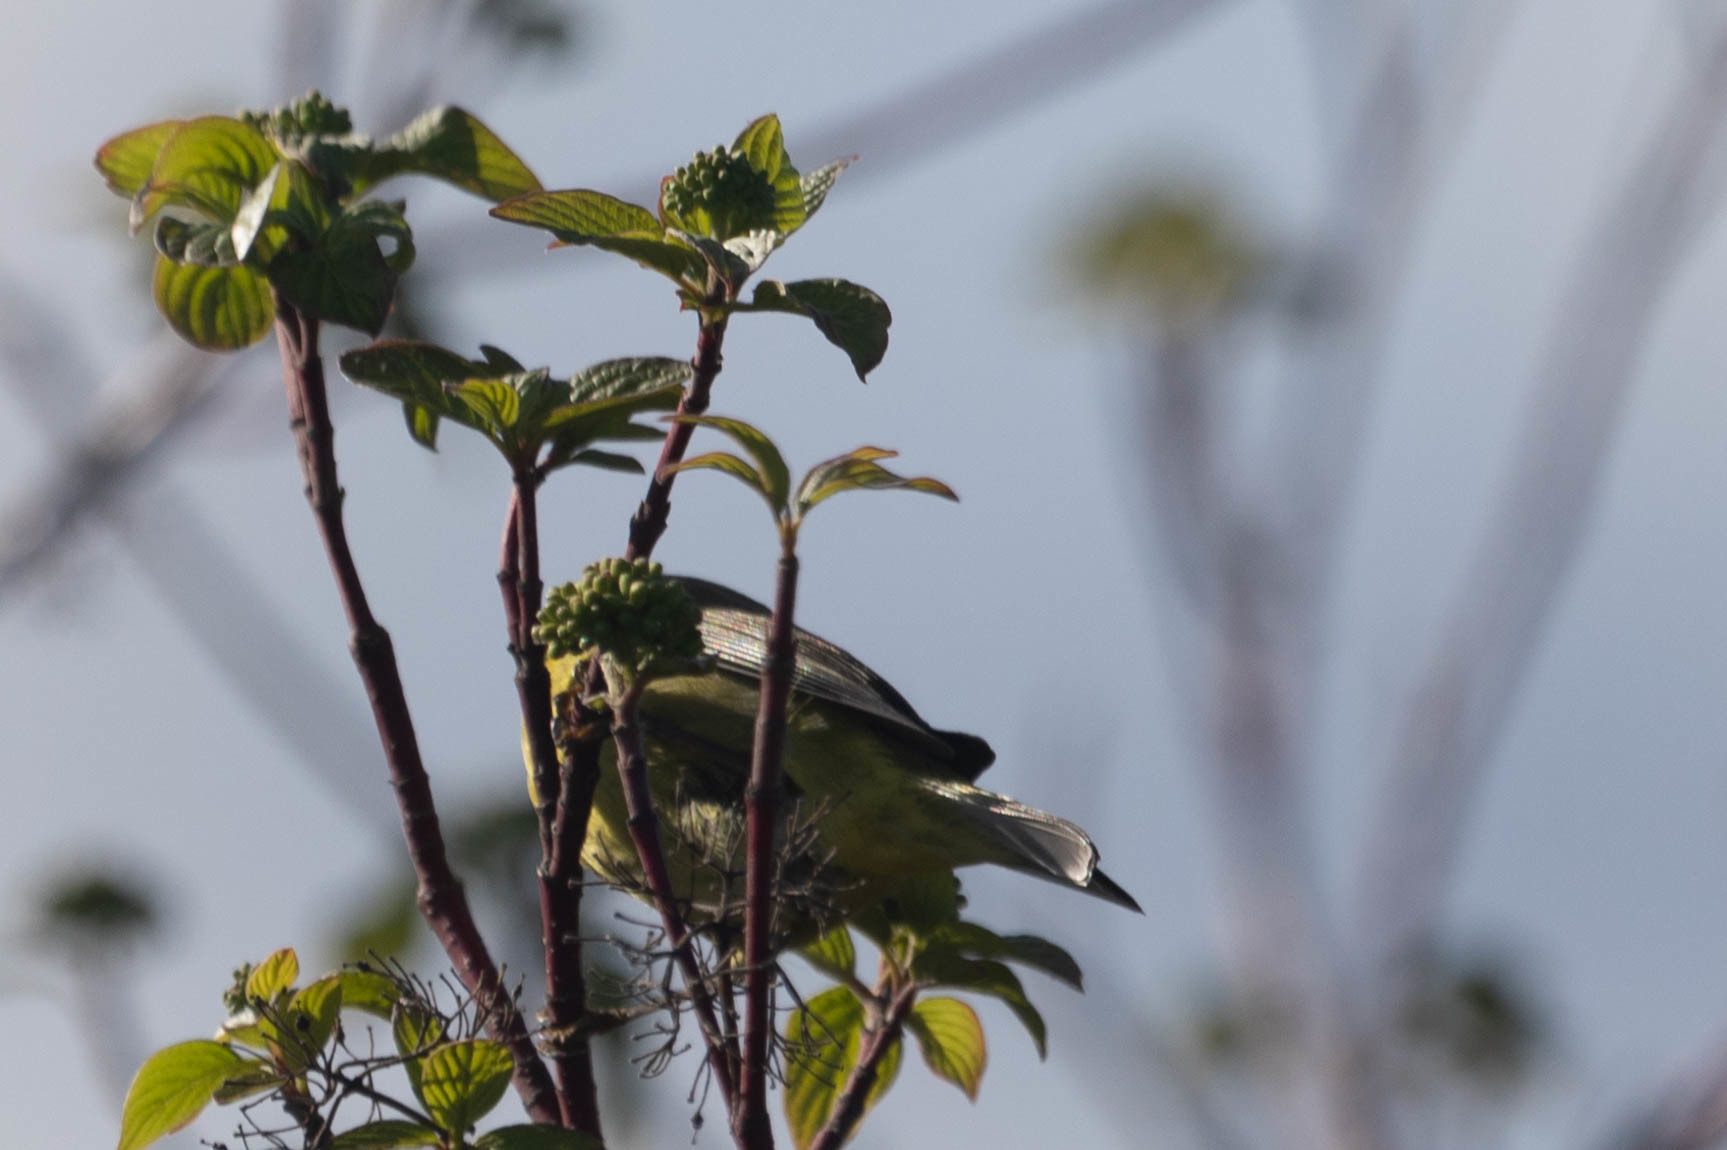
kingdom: Animalia
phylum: Chordata
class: Aves
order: Passeriformes
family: Parulidae
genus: Leiothlypis
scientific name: Leiothlypis celata
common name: Orange-crowned warbler
